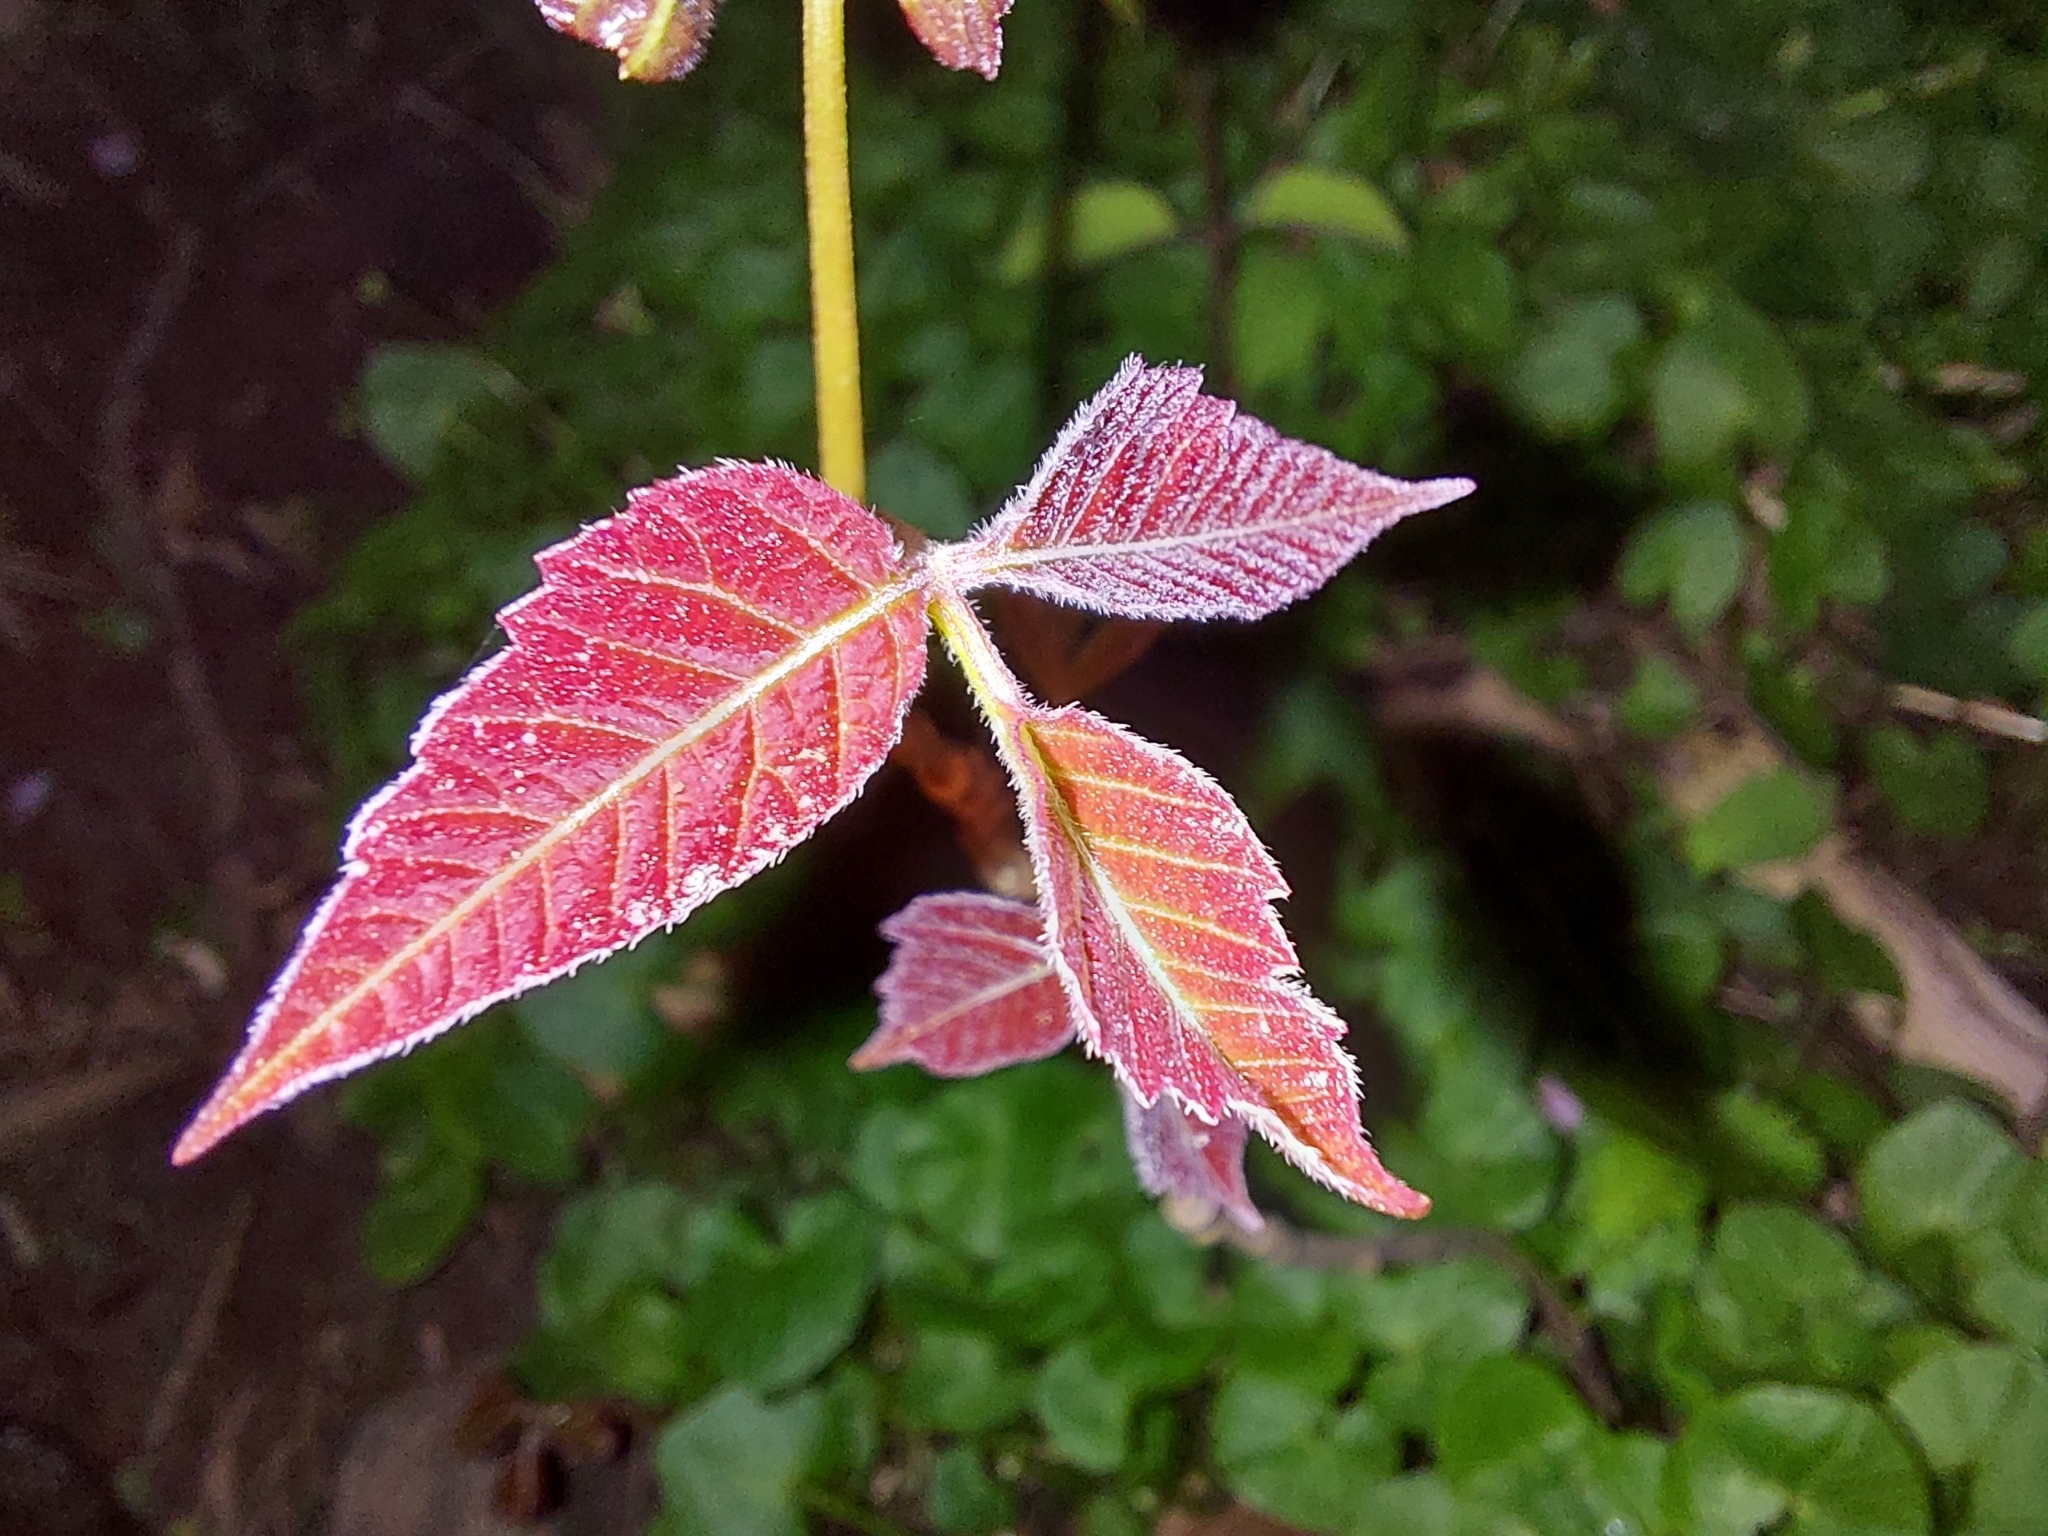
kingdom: Plantae
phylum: Tracheophyta
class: Magnoliopsida
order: Sapindales
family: Anacardiaceae
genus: Toxicodendron
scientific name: Toxicodendron radicans
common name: Poison ivy
